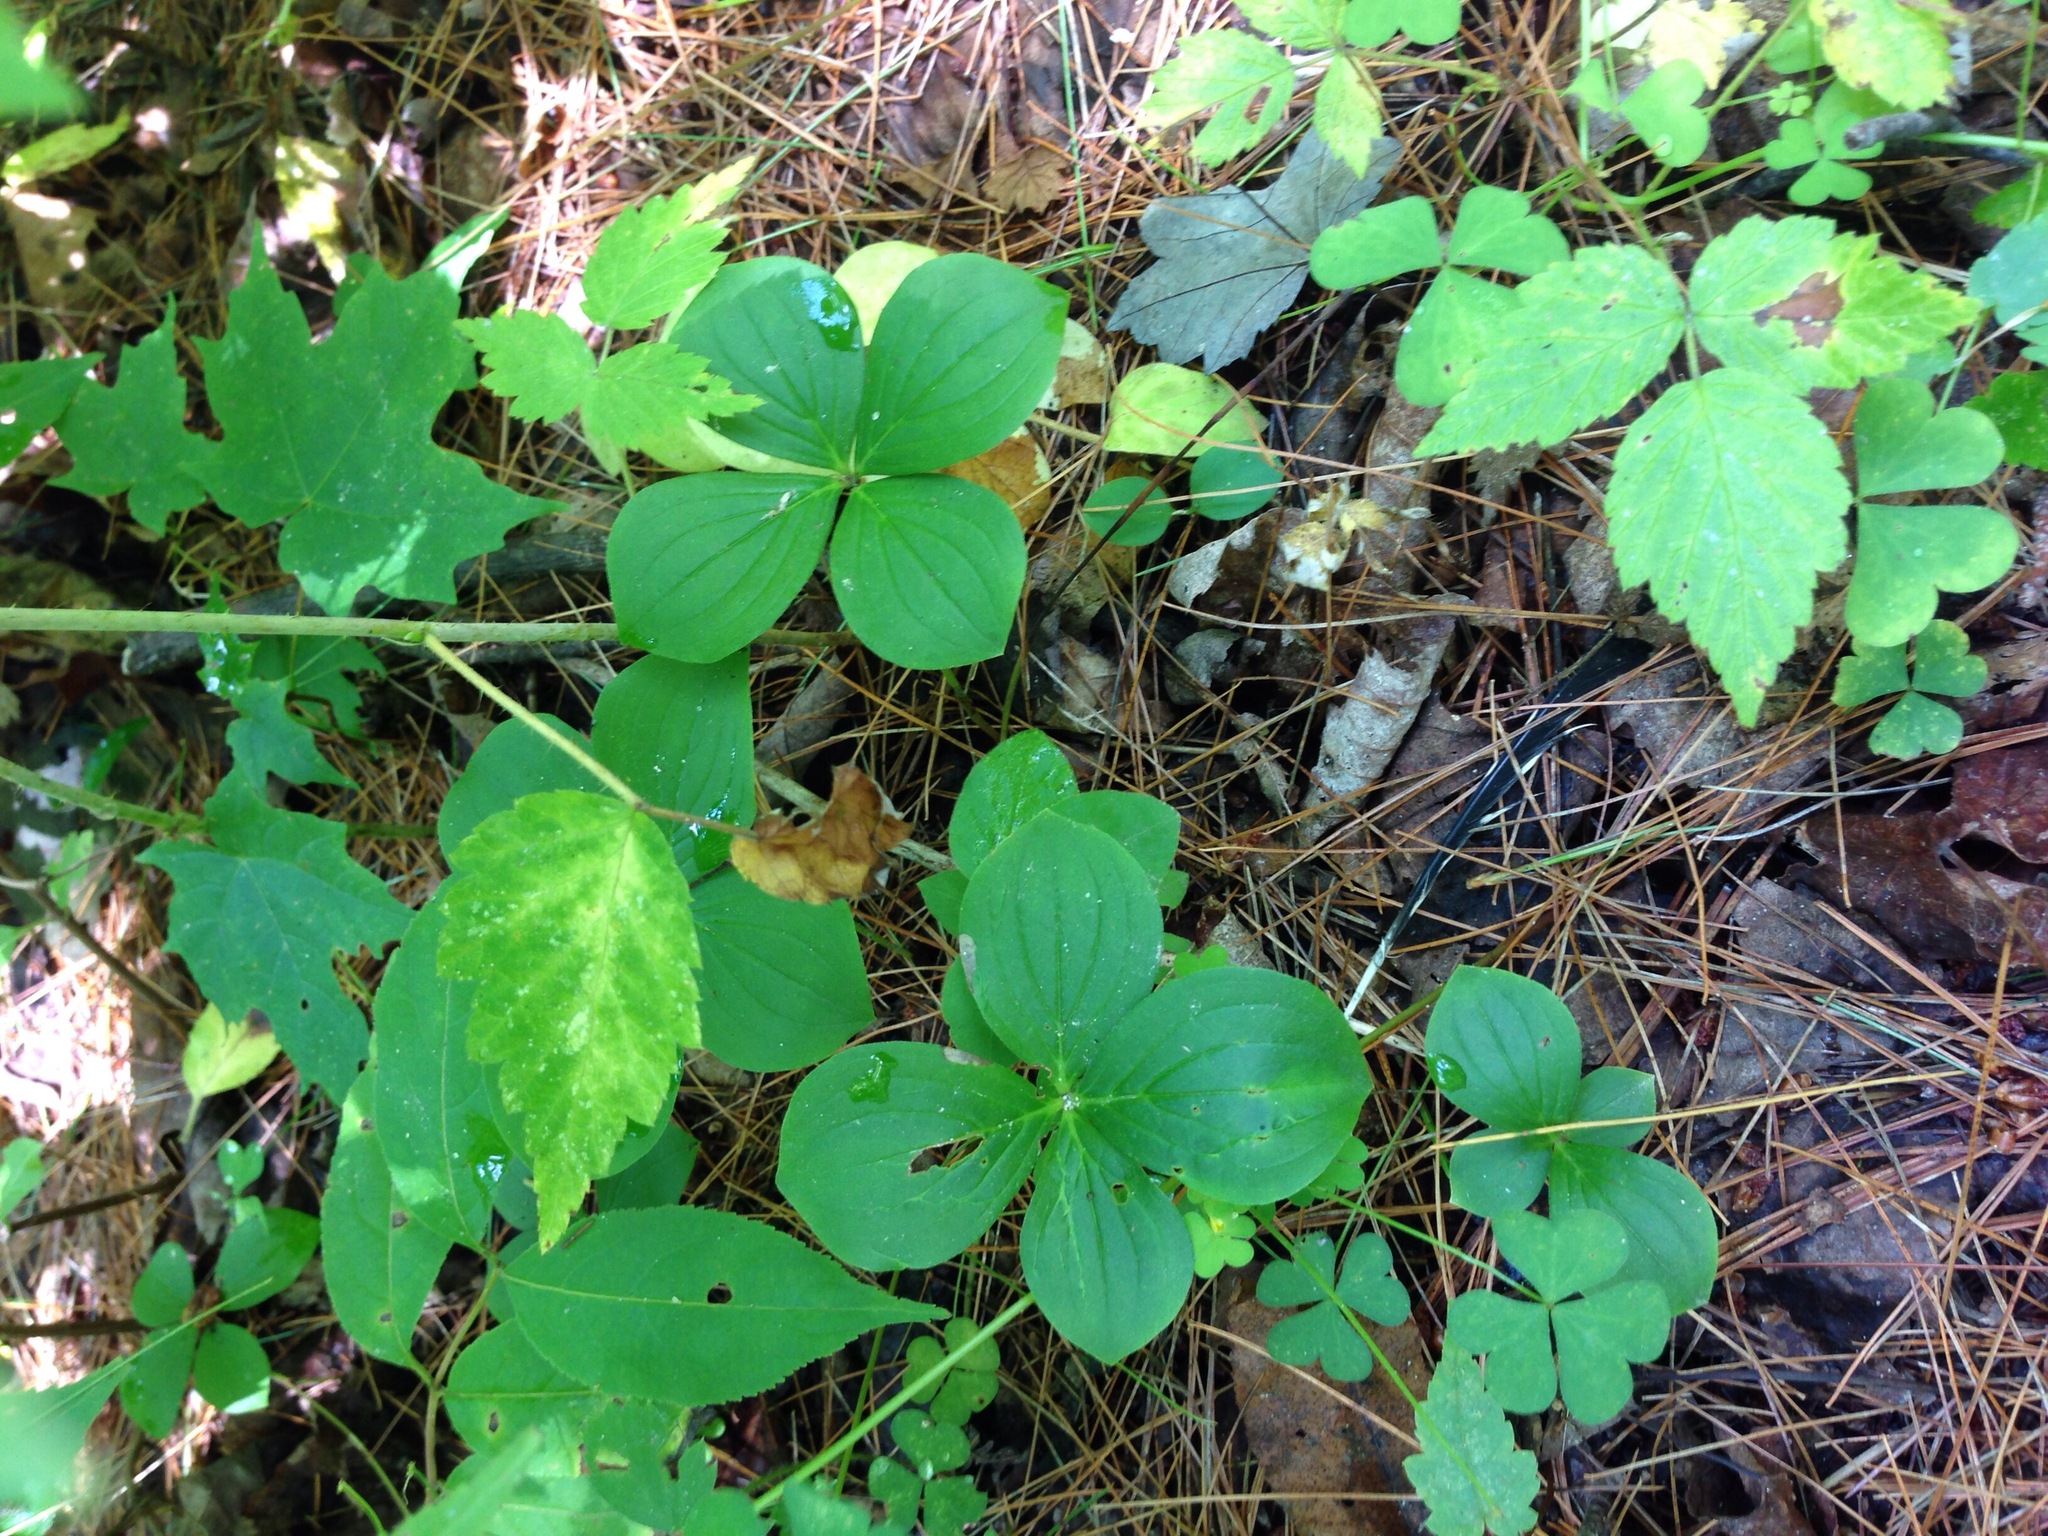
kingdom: Plantae
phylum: Tracheophyta
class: Magnoliopsida
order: Cornales
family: Cornaceae
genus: Cornus
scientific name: Cornus canadensis
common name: Creeping dogwood
